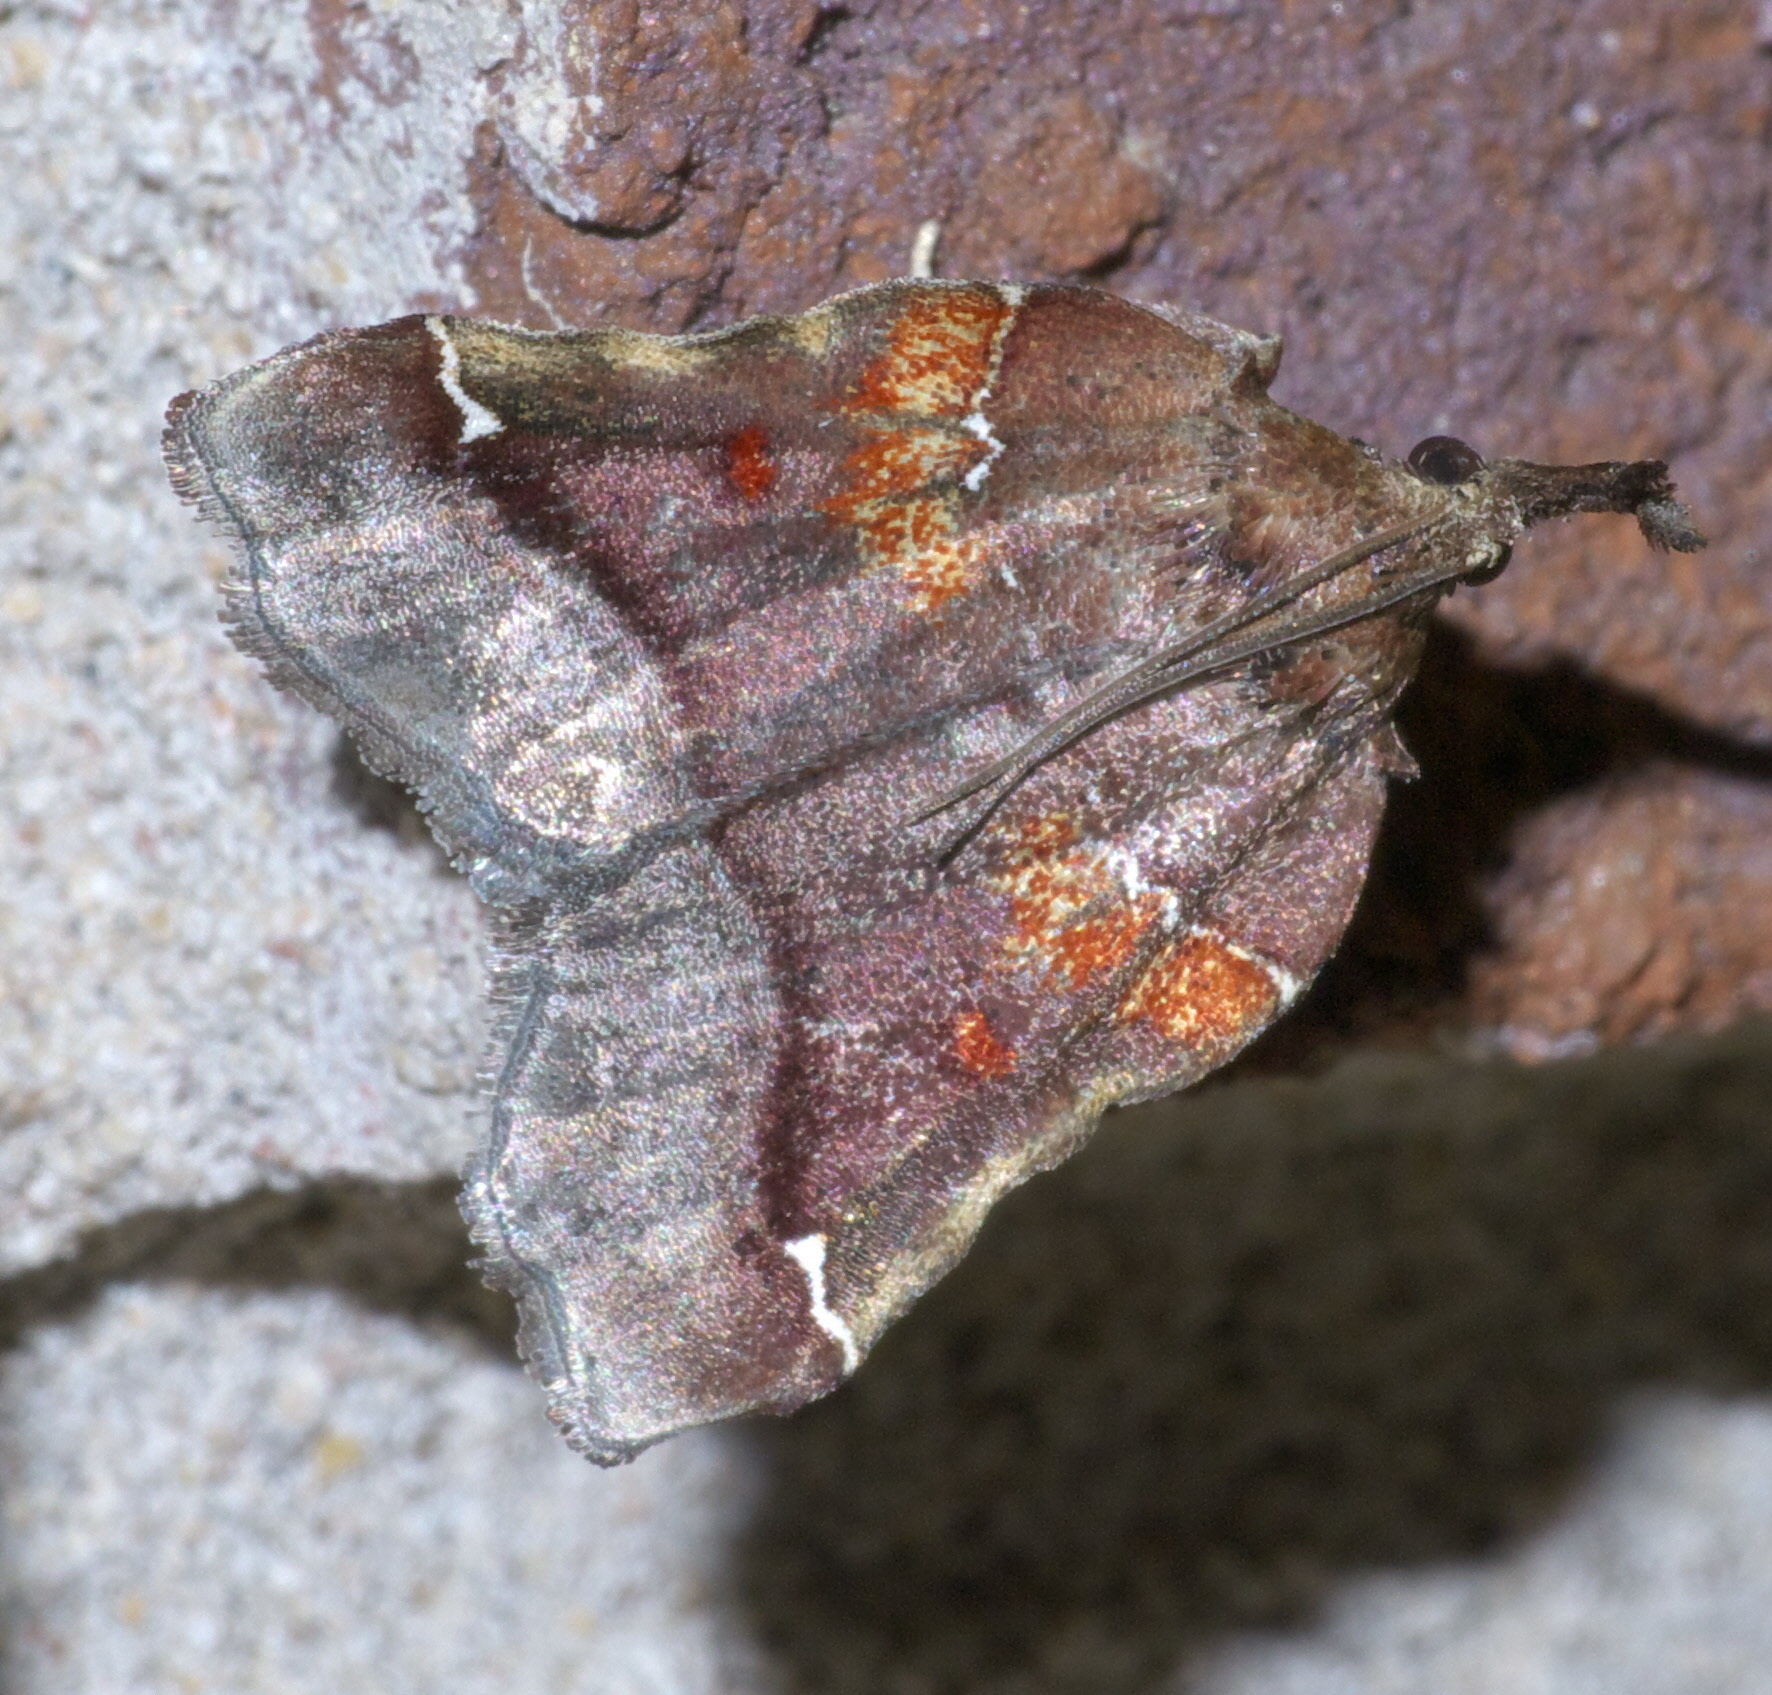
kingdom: Animalia
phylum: Arthropoda
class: Insecta
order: Lepidoptera
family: Pyralidae
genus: Clydonopteron
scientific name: Clydonopteron sacculana
